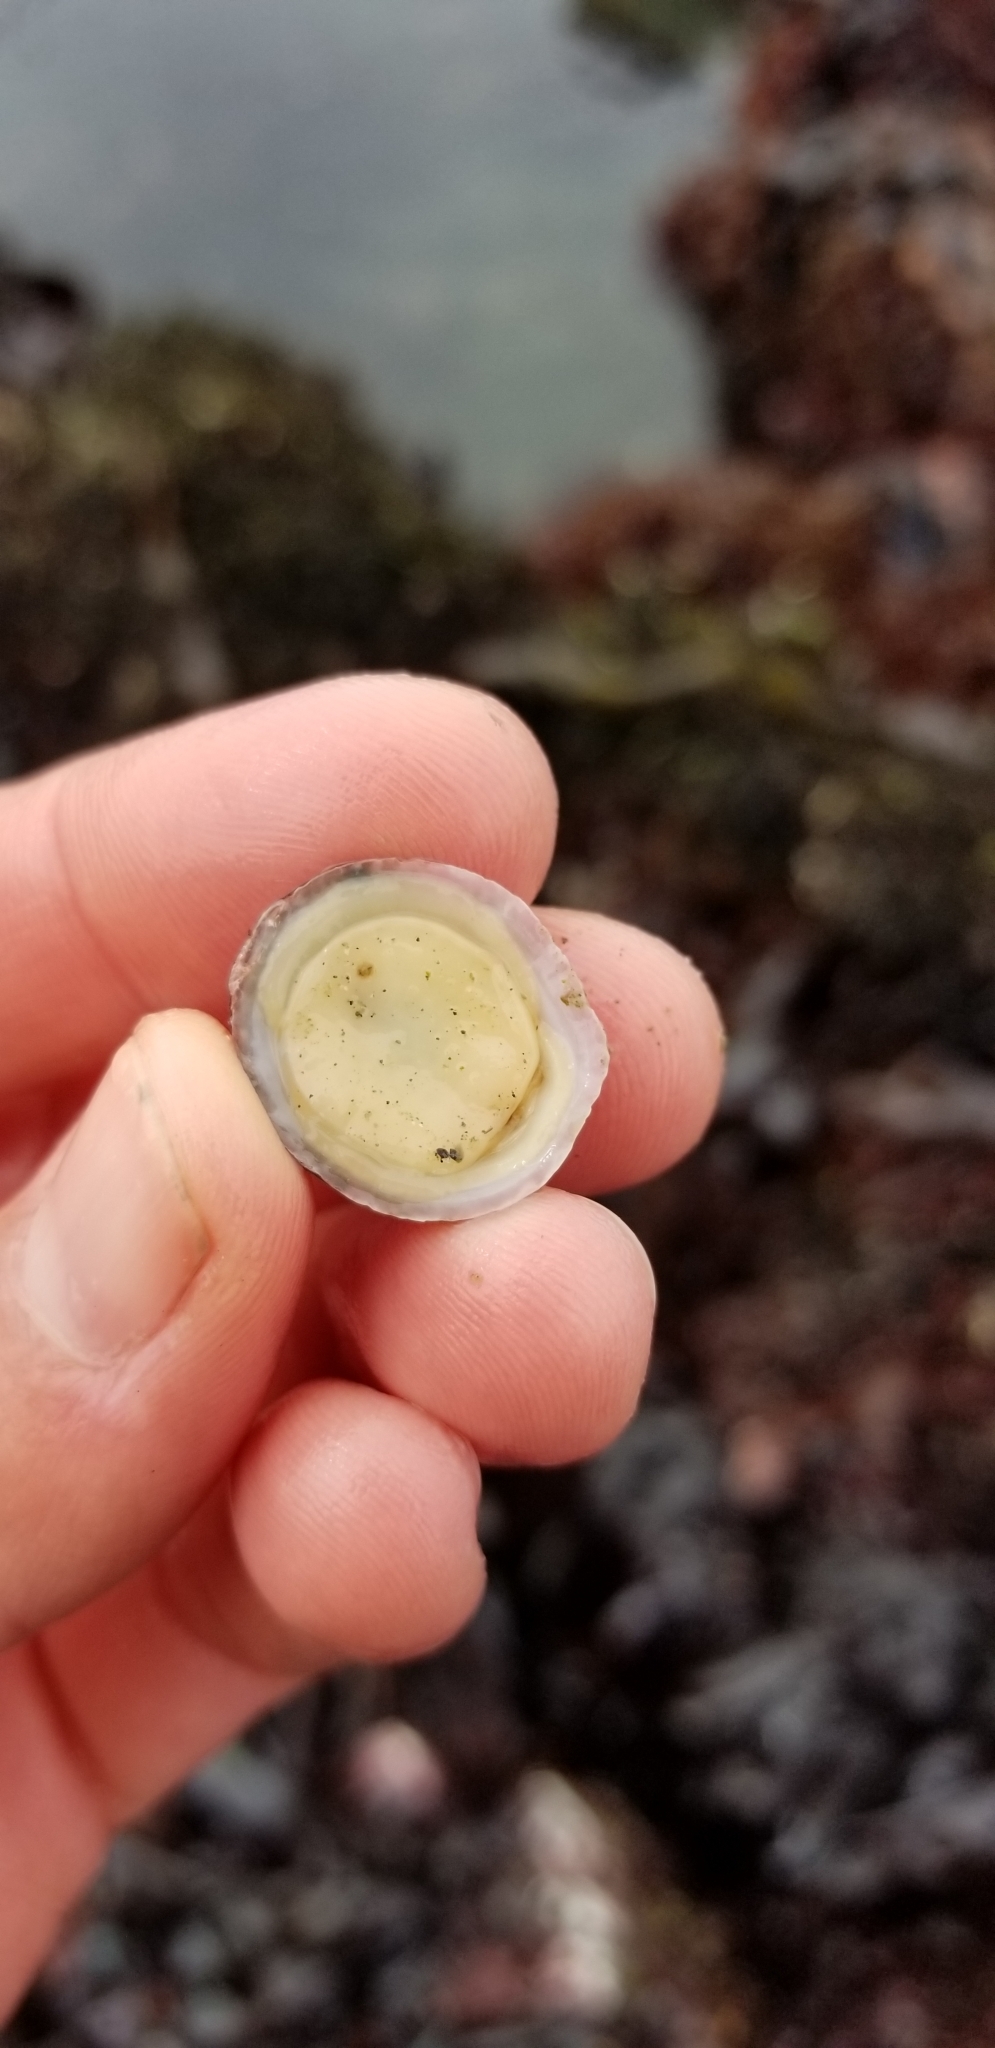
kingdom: Animalia
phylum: Mollusca
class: Gastropoda
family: Acmaeidae
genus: Acmaea
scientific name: Acmaea mitra
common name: Pacific white cap limpet
